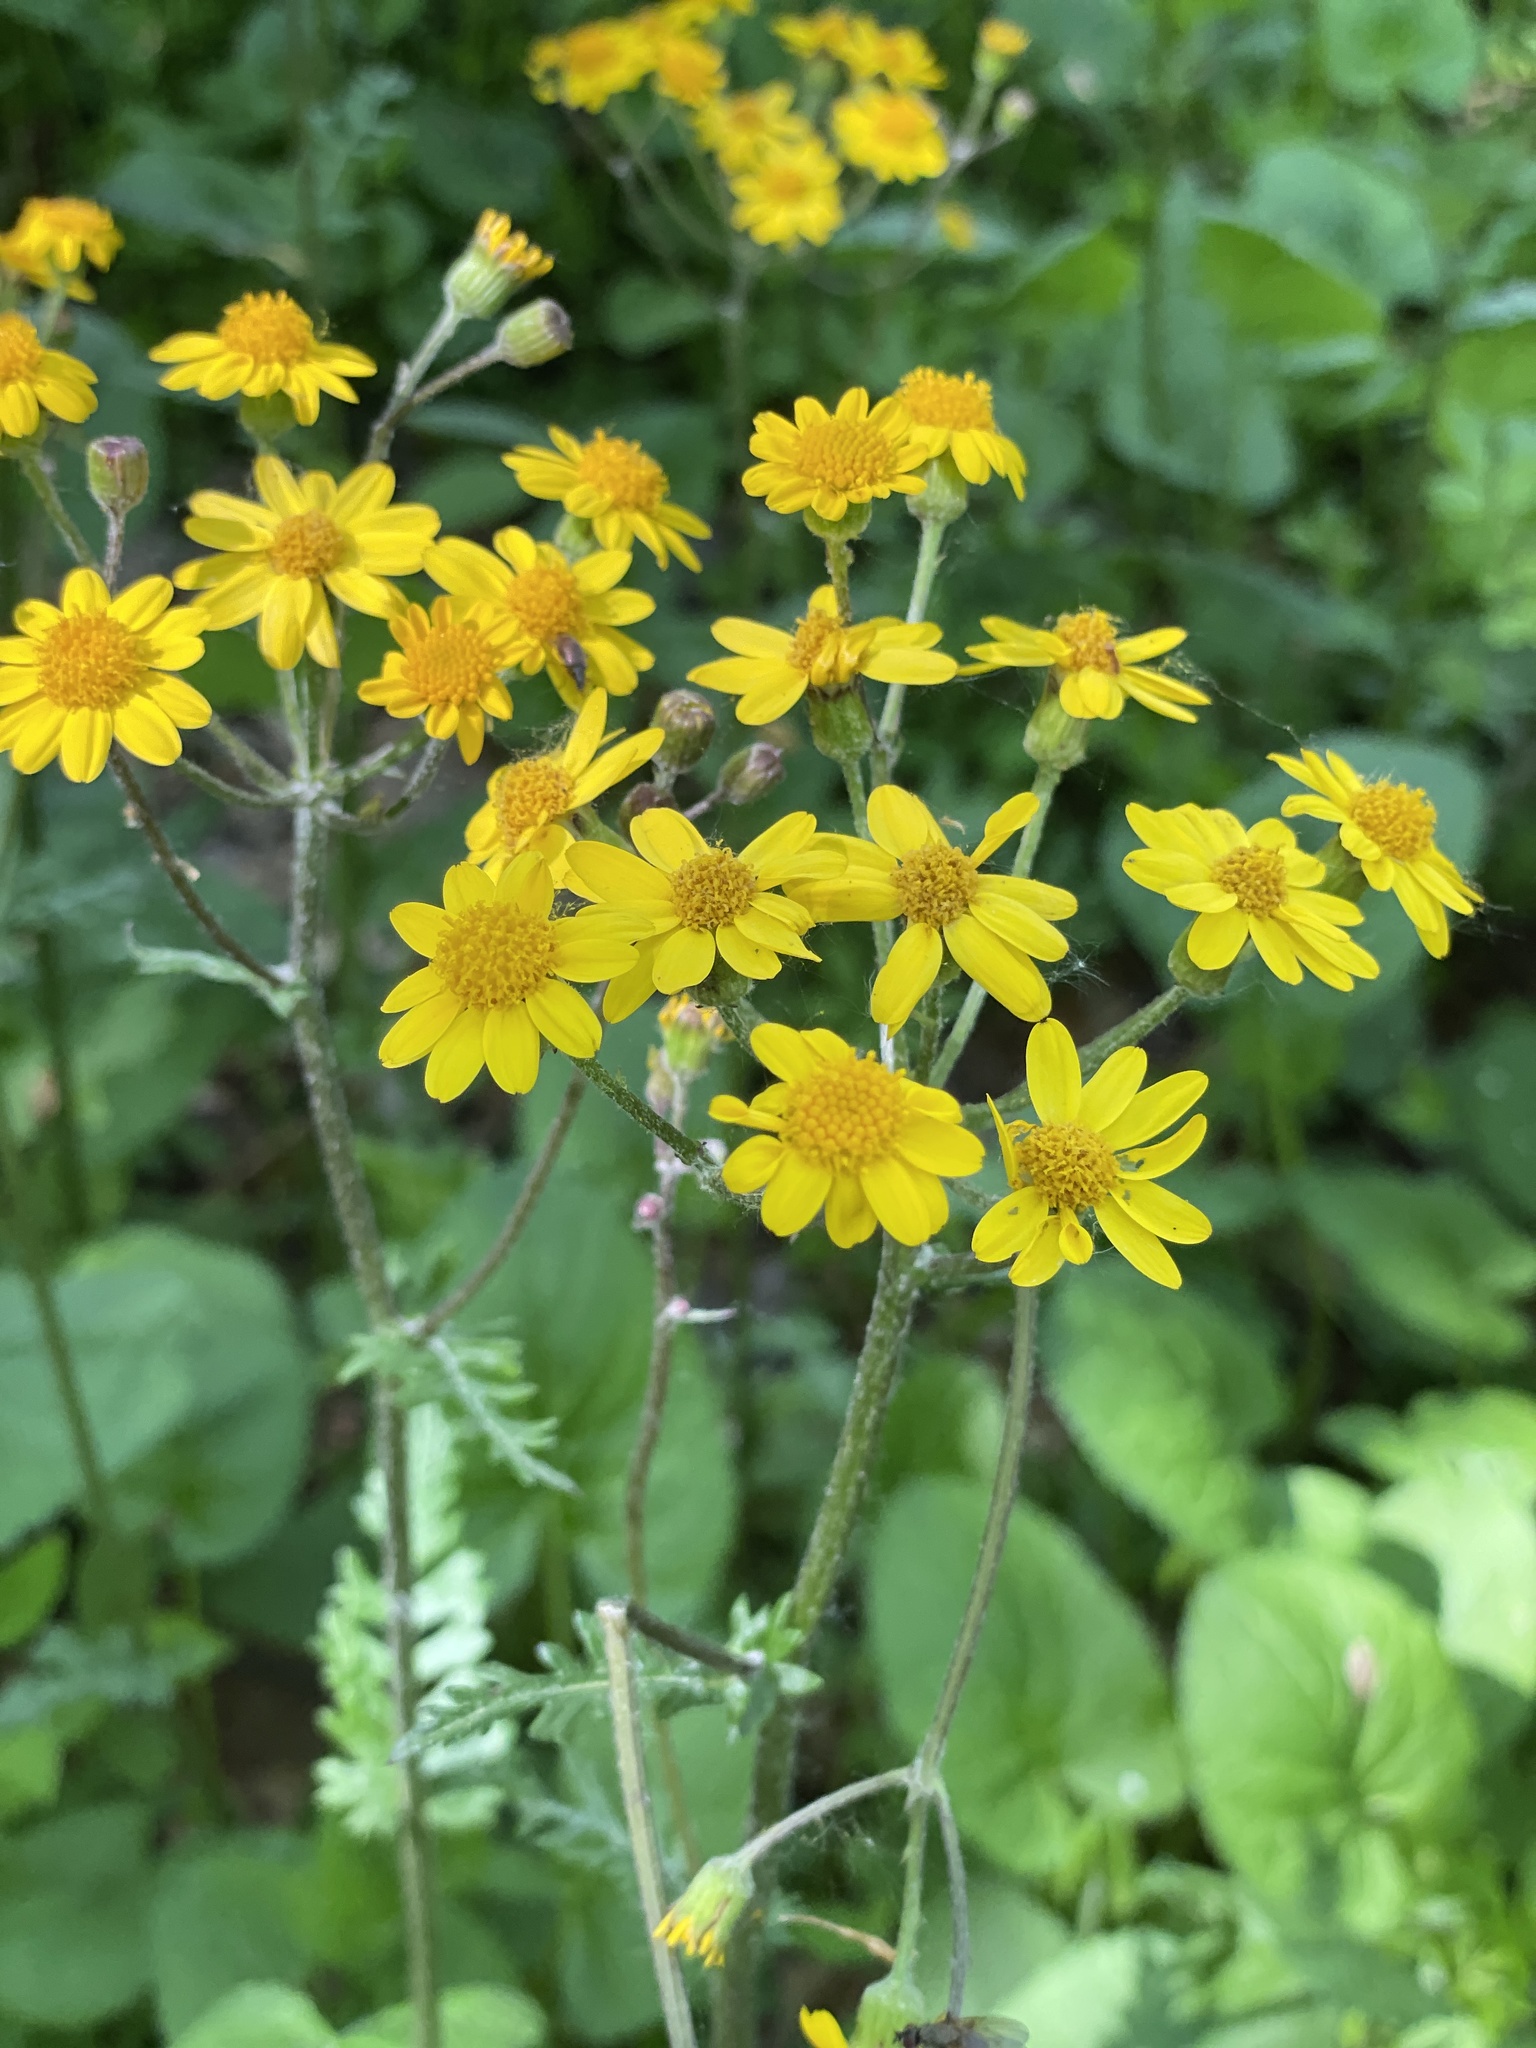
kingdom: Plantae
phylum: Tracheophyta
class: Magnoliopsida
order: Asterales
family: Asteraceae
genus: Packera
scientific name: Packera aurea
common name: Golden groundsel
